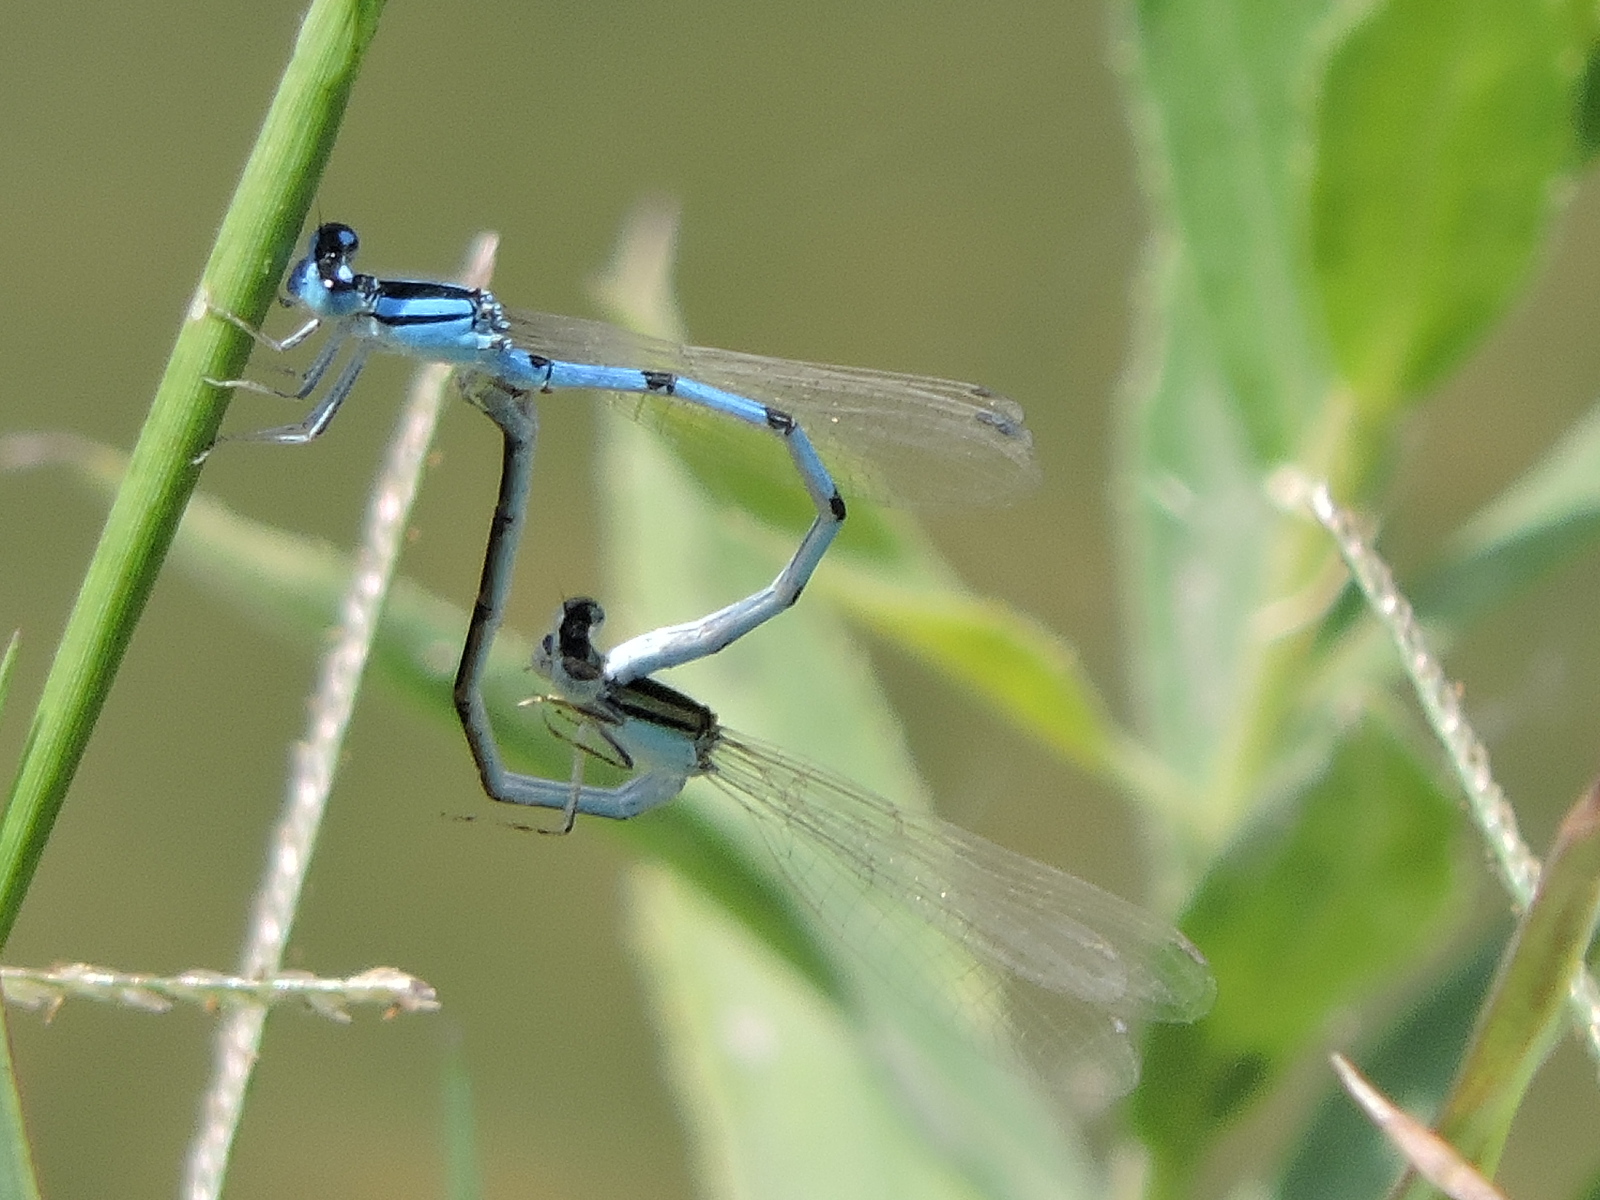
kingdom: Animalia
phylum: Arthropoda
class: Insecta
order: Odonata
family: Coenagrionidae
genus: Enallagma
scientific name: Enallagma civile
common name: Damselfly
